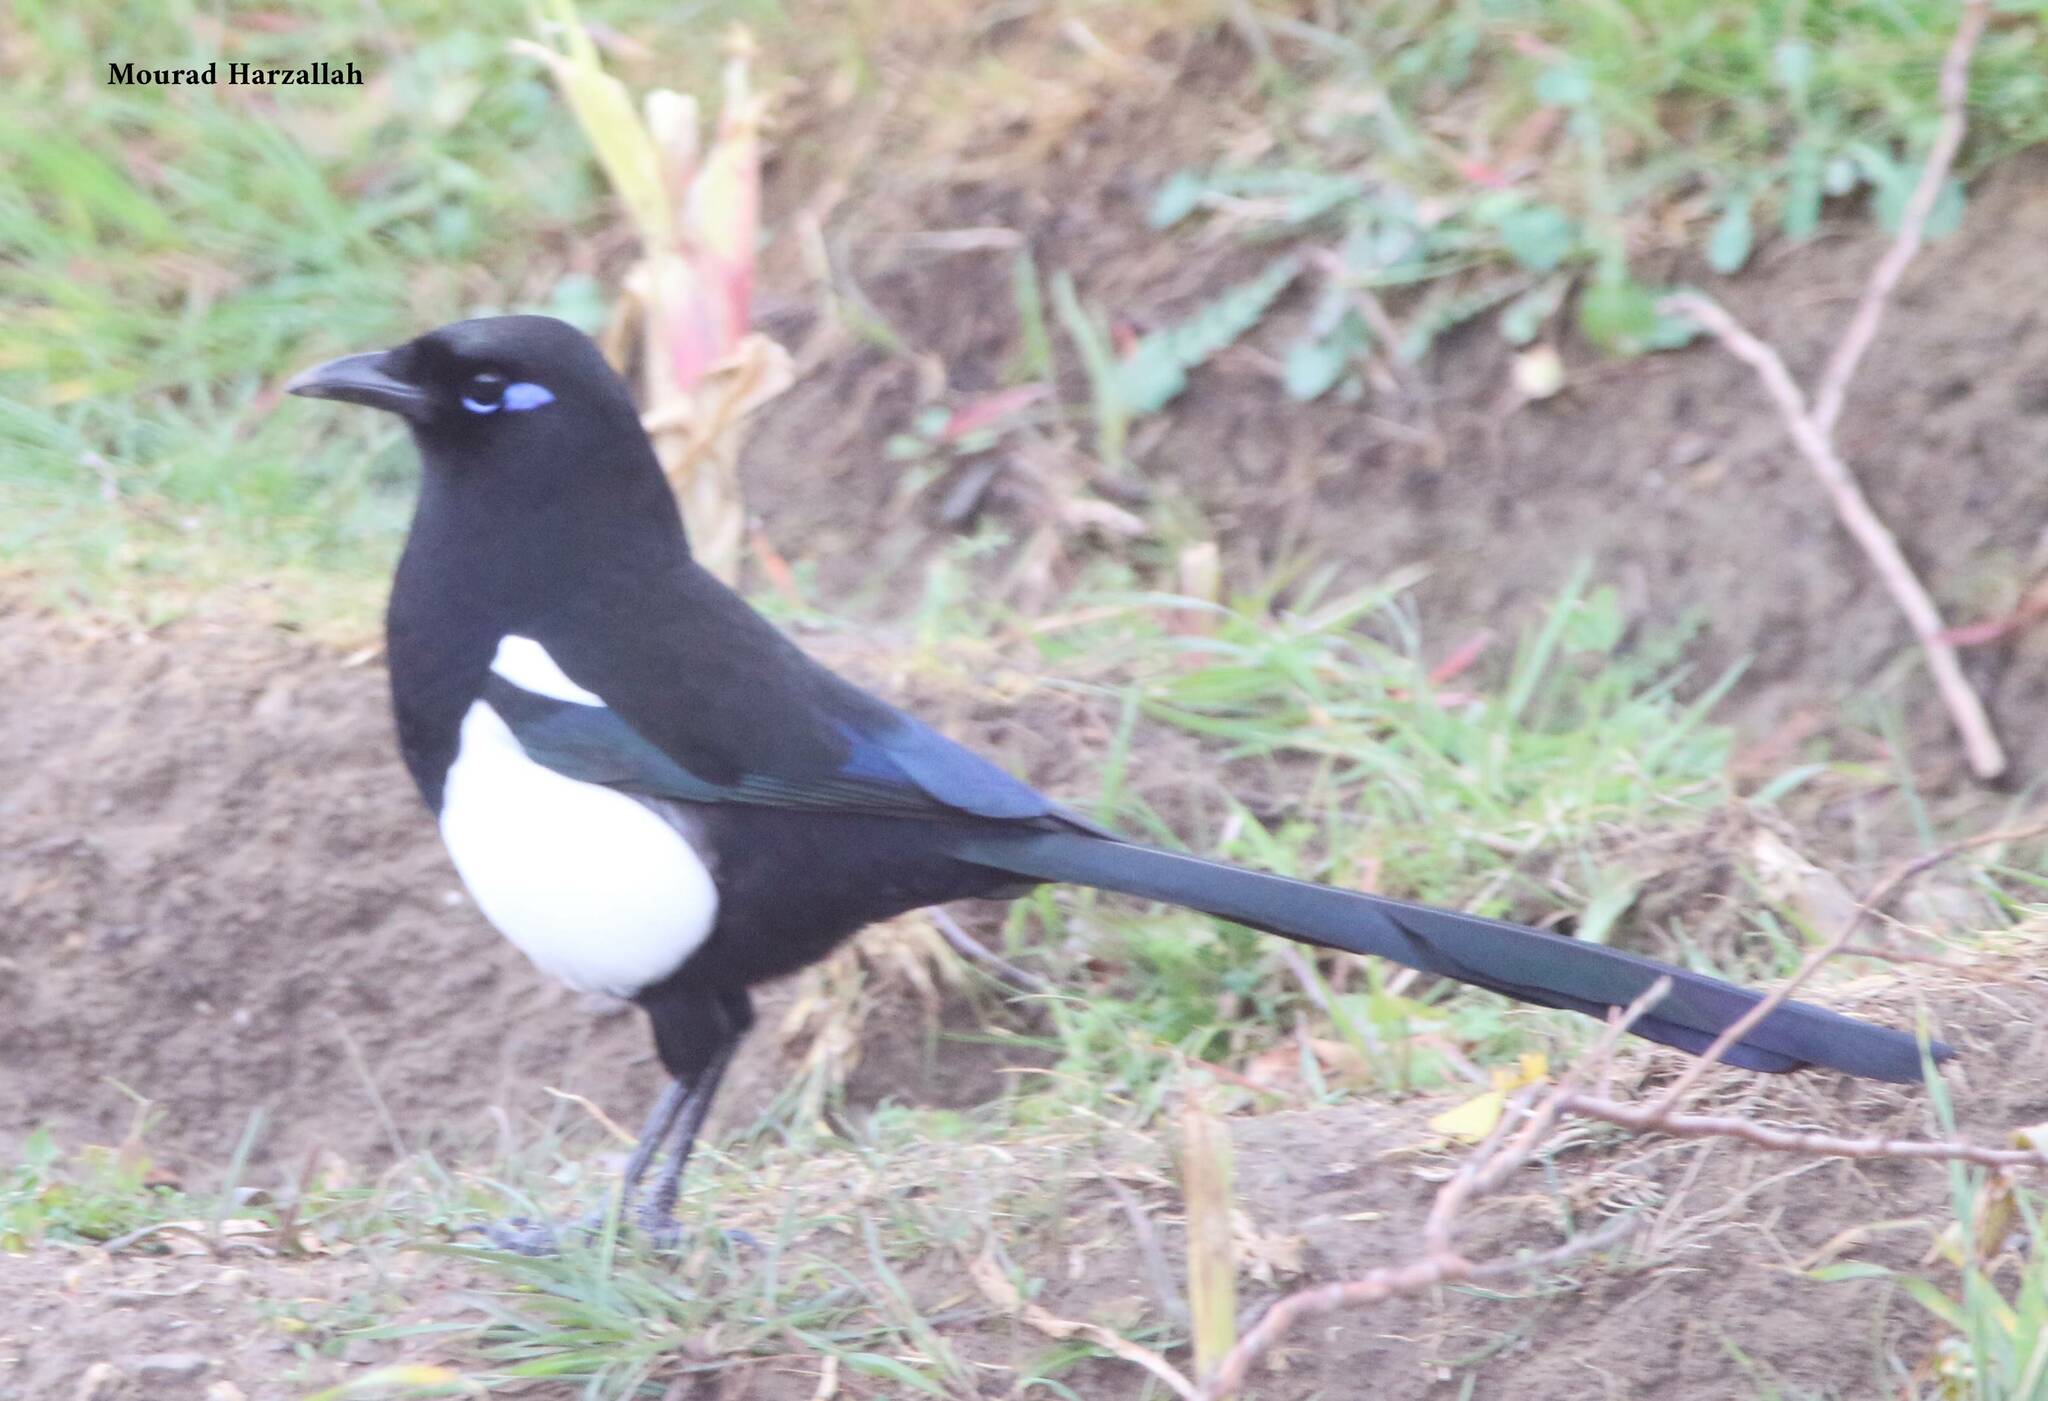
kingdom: Animalia
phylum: Chordata
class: Aves
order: Passeriformes
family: Corvidae
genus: Pica
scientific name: Pica mauritanica
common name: Maghreb magpie
